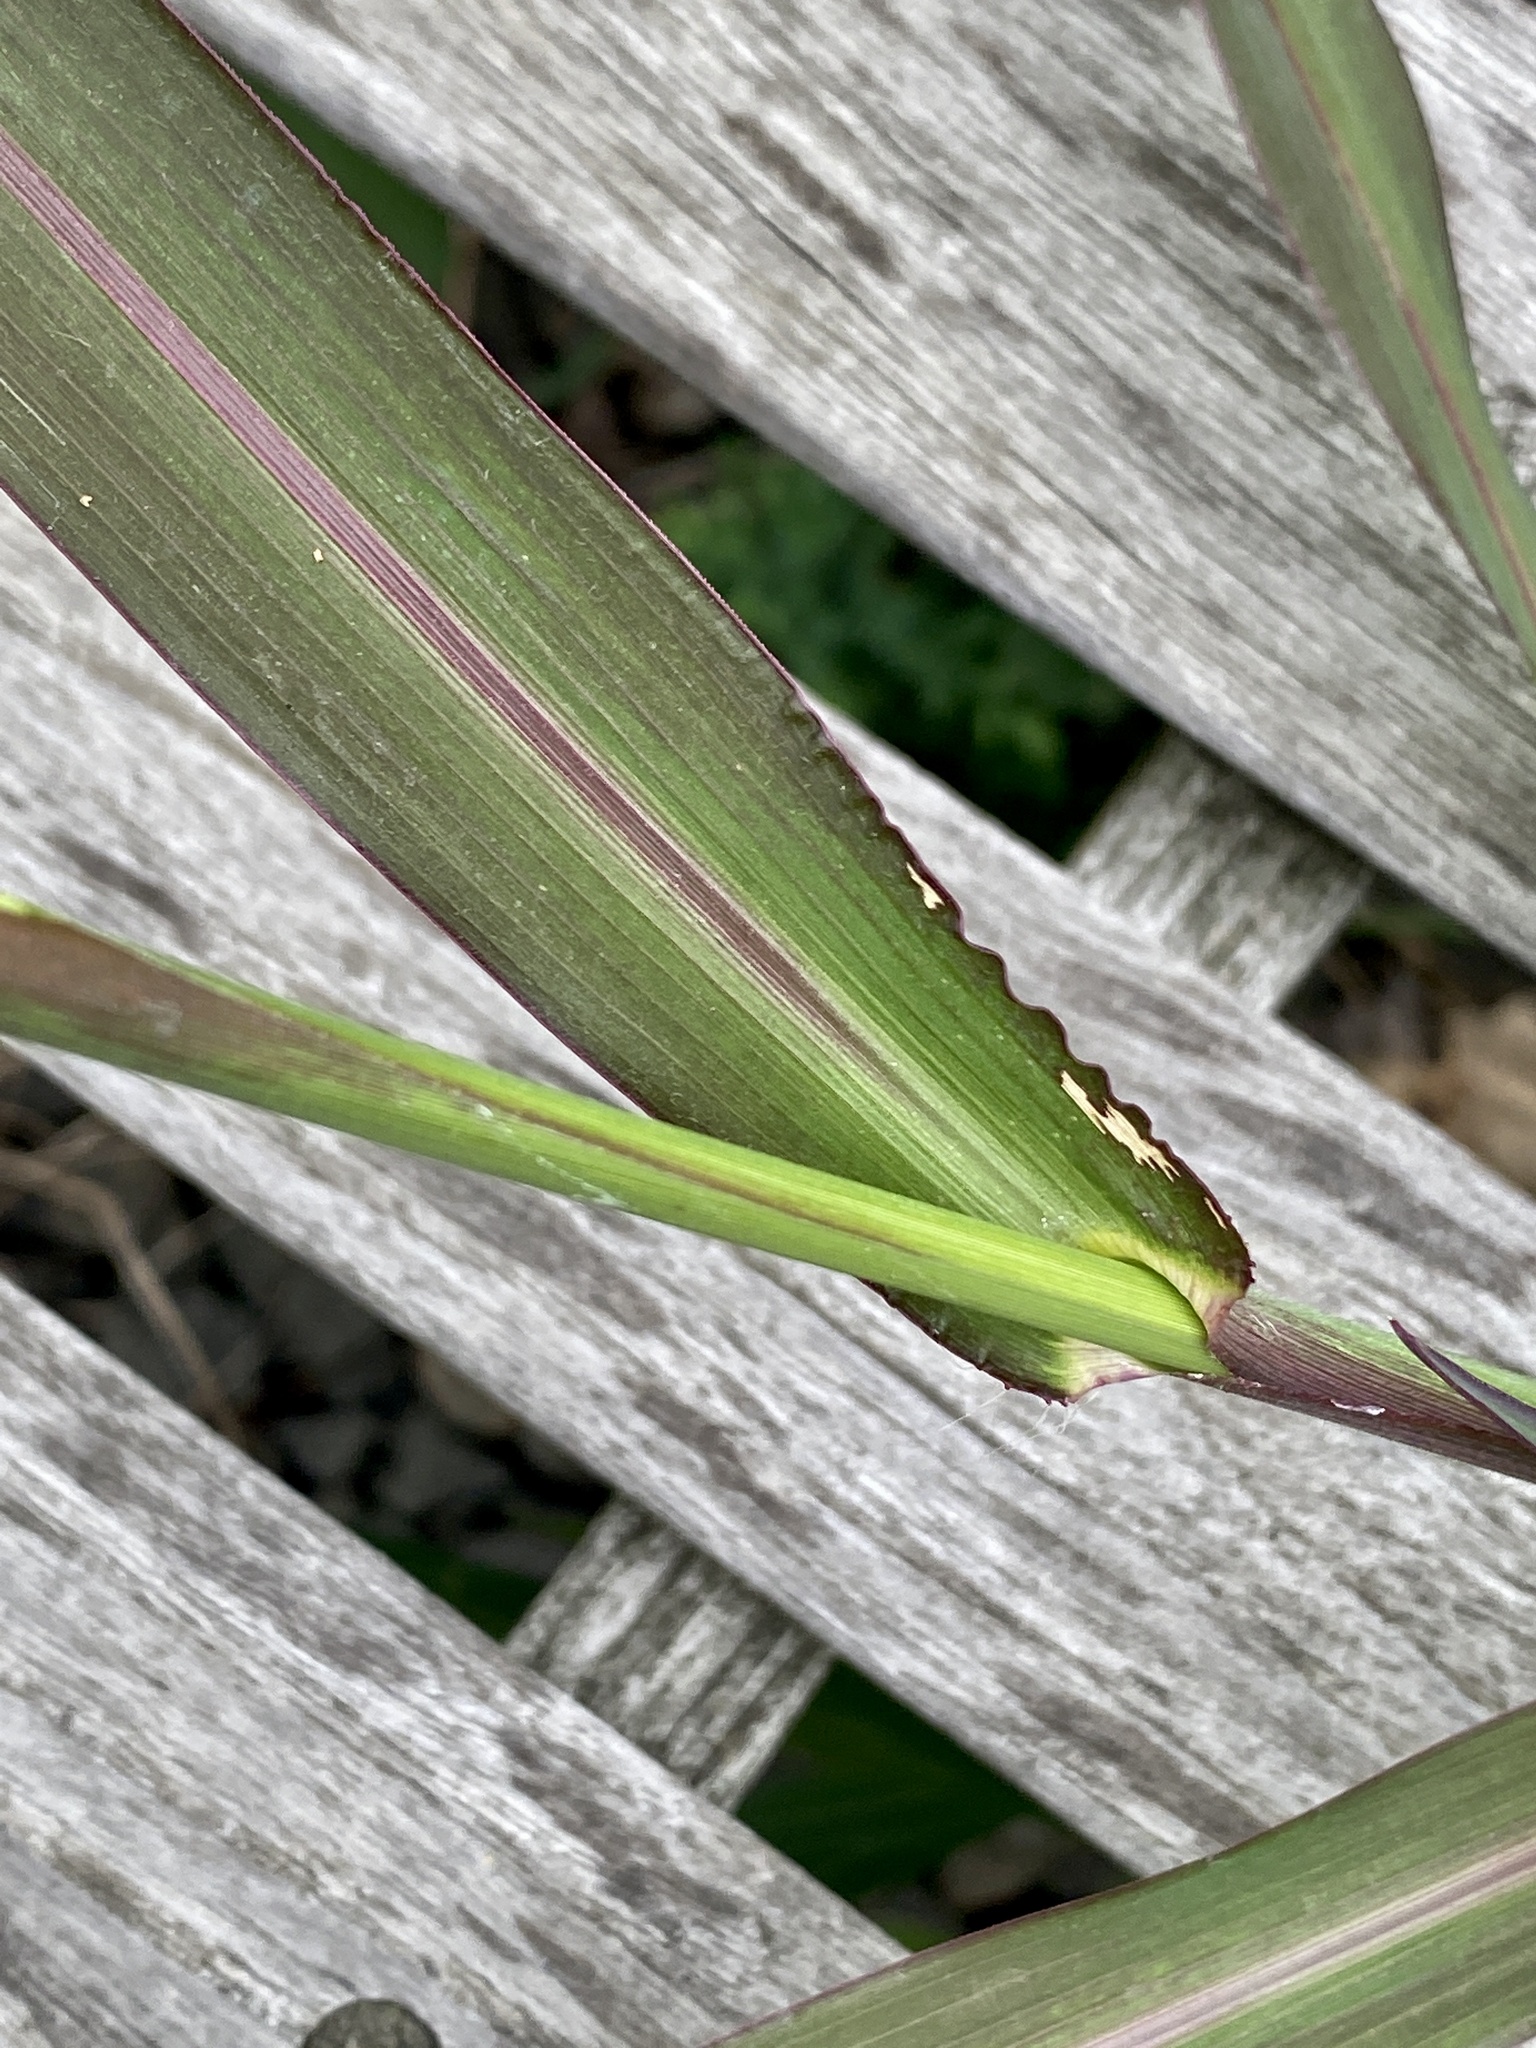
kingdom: Plantae
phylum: Tracheophyta
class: Liliopsida
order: Poales
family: Poaceae
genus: Echinochloa
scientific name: Echinochloa crus-galli
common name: Cockspur
